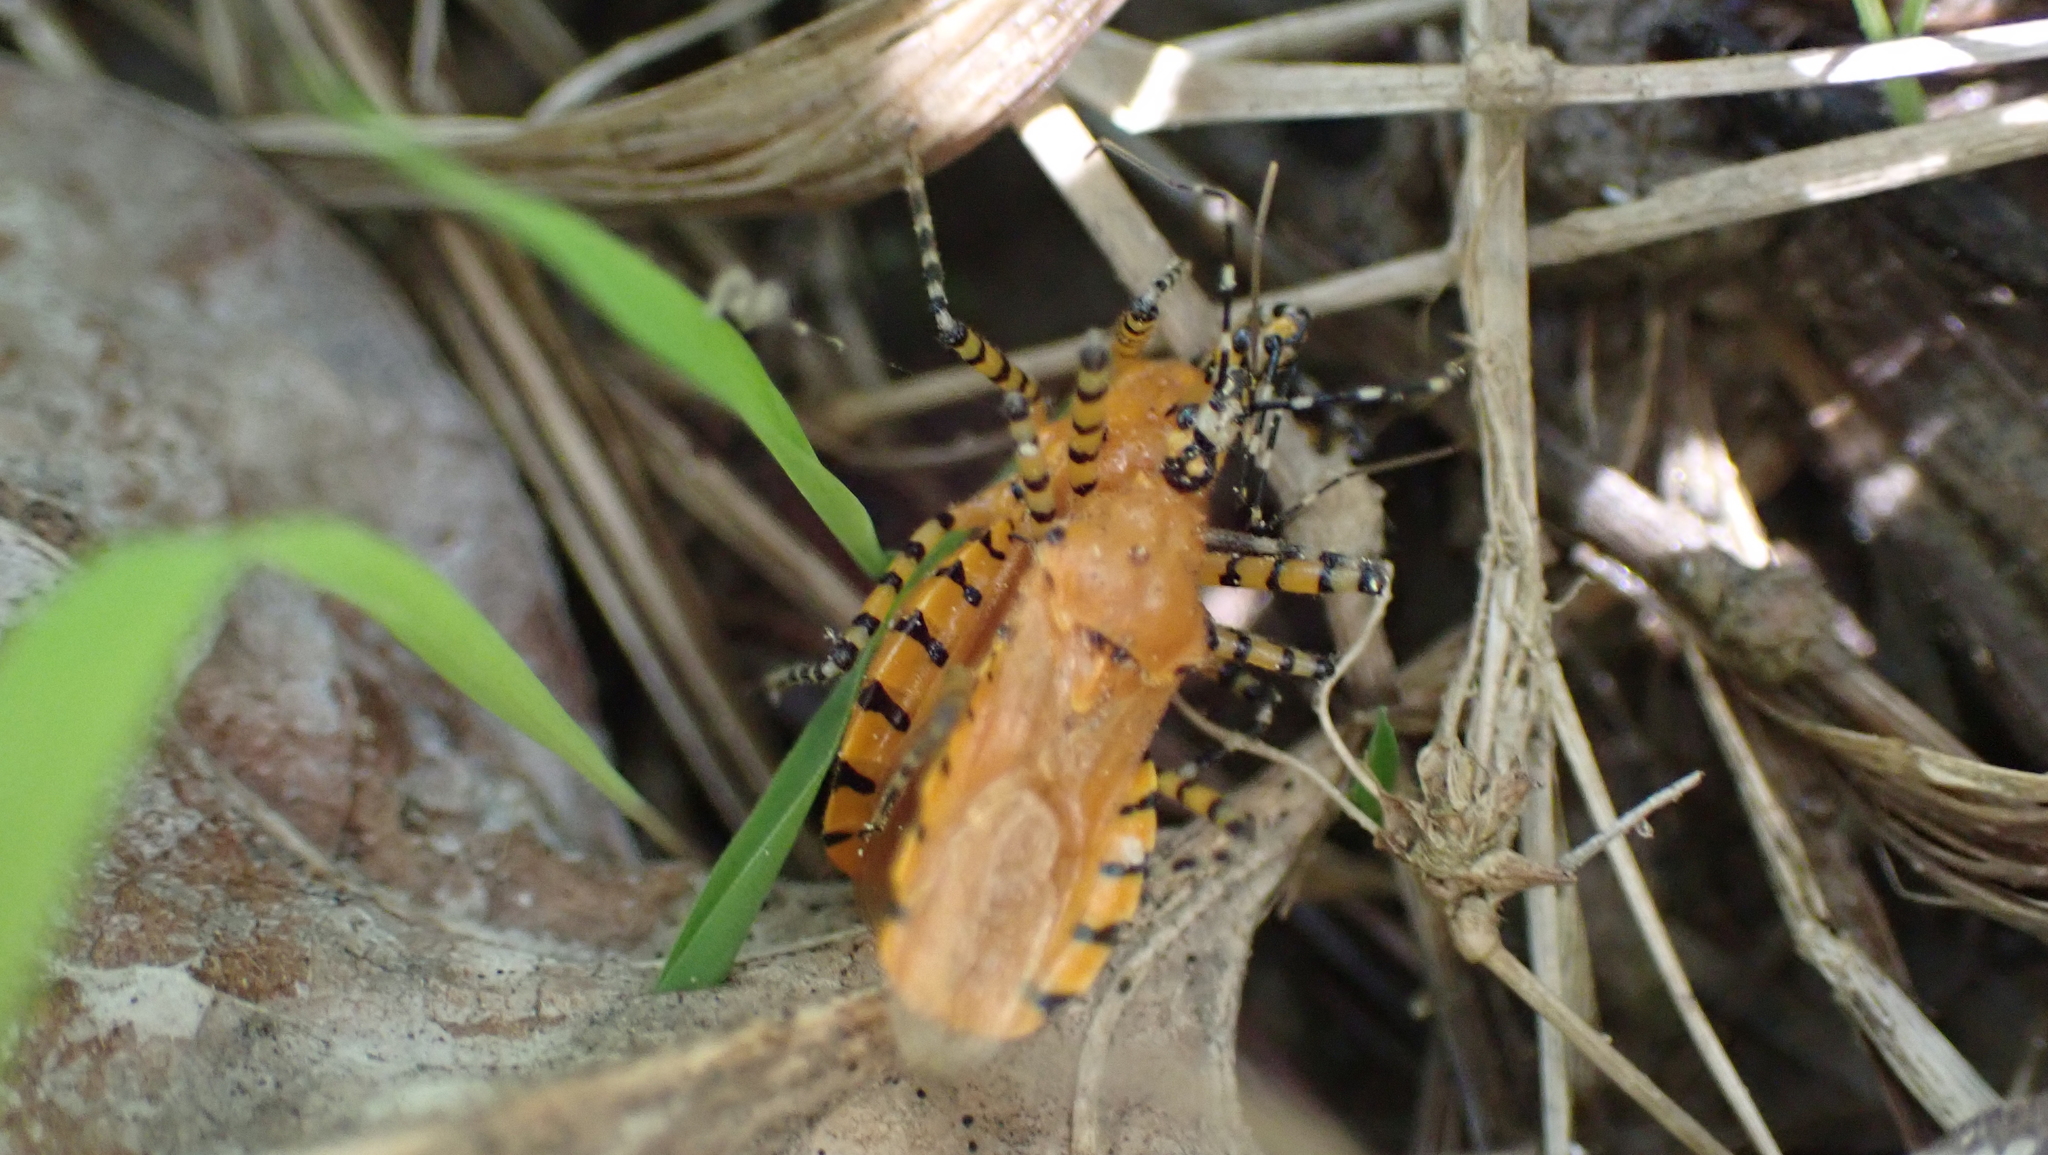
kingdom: Animalia
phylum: Arthropoda
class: Insecta
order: Hemiptera
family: Reduviidae
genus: Pselliopus
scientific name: Pselliopus barberi
